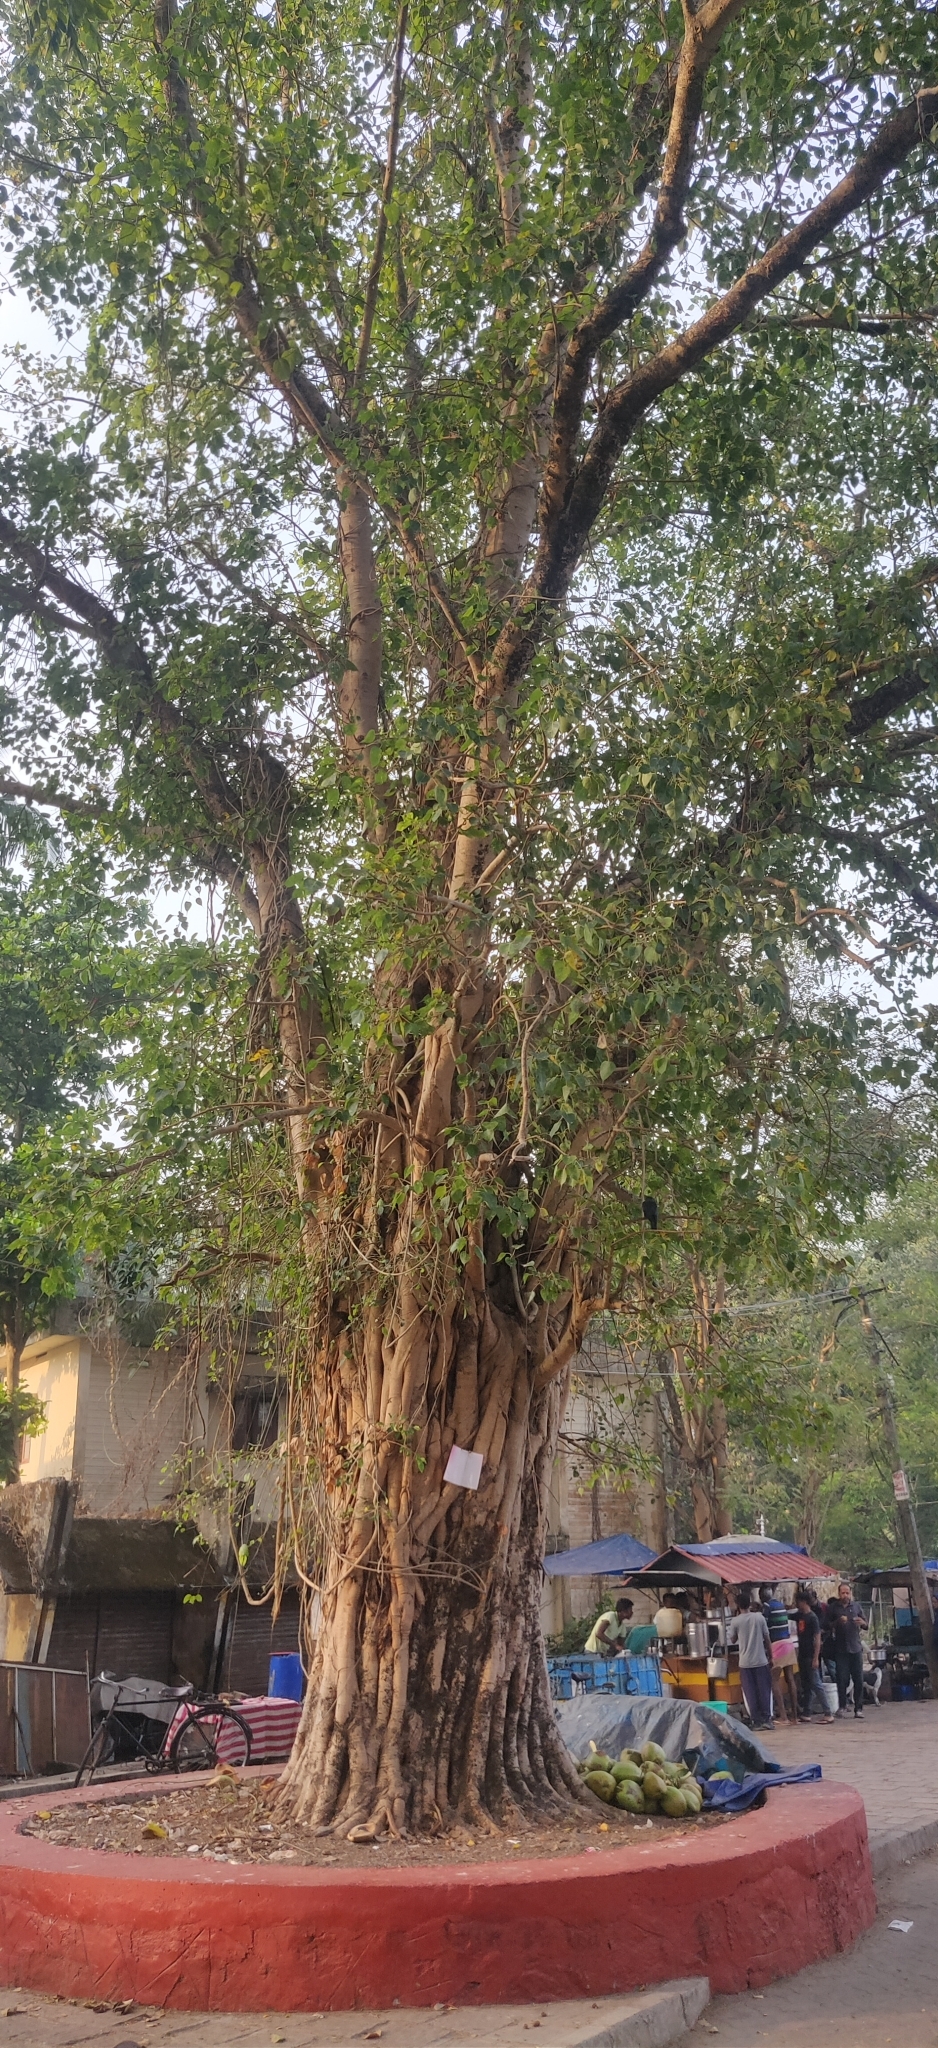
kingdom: Plantae
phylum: Tracheophyta
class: Magnoliopsida
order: Rosales
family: Moraceae
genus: Ficus
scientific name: Ficus religiosa
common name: Bodhi tree
